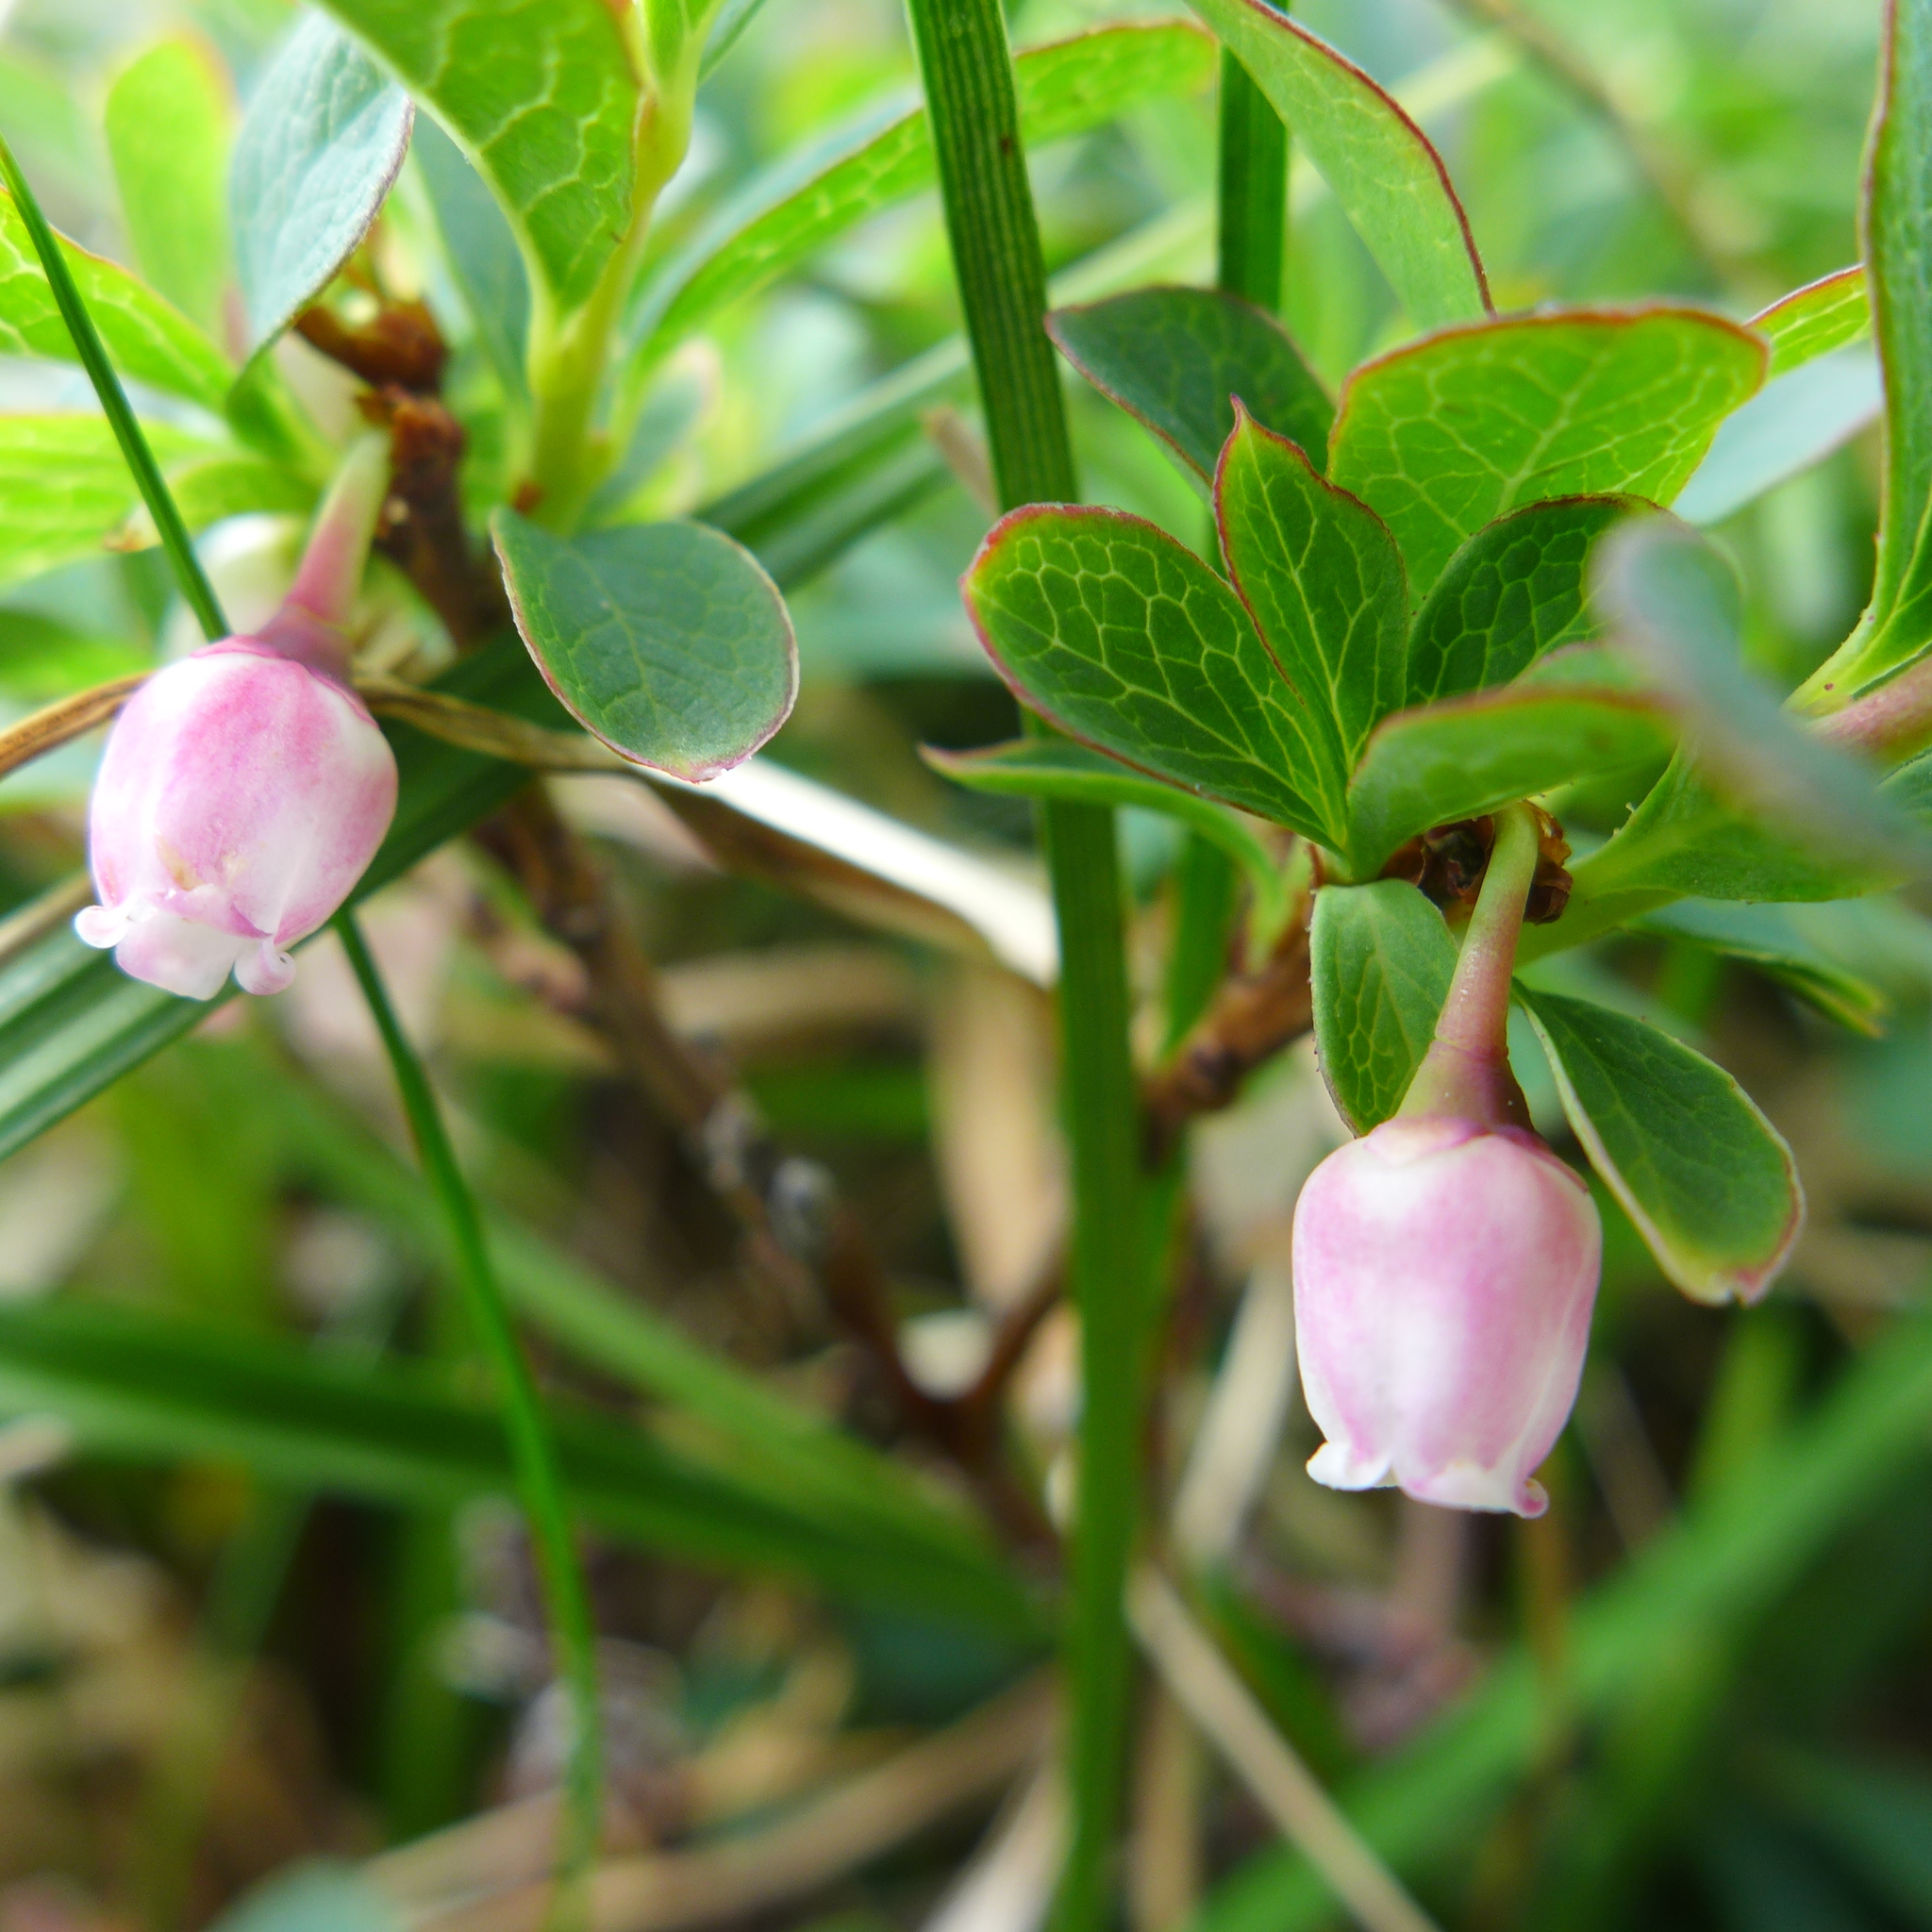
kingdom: Plantae
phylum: Tracheophyta
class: Magnoliopsida
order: Ericales
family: Ericaceae
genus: Vaccinium
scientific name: Vaccinium uliginosum
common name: Bog bilberry
